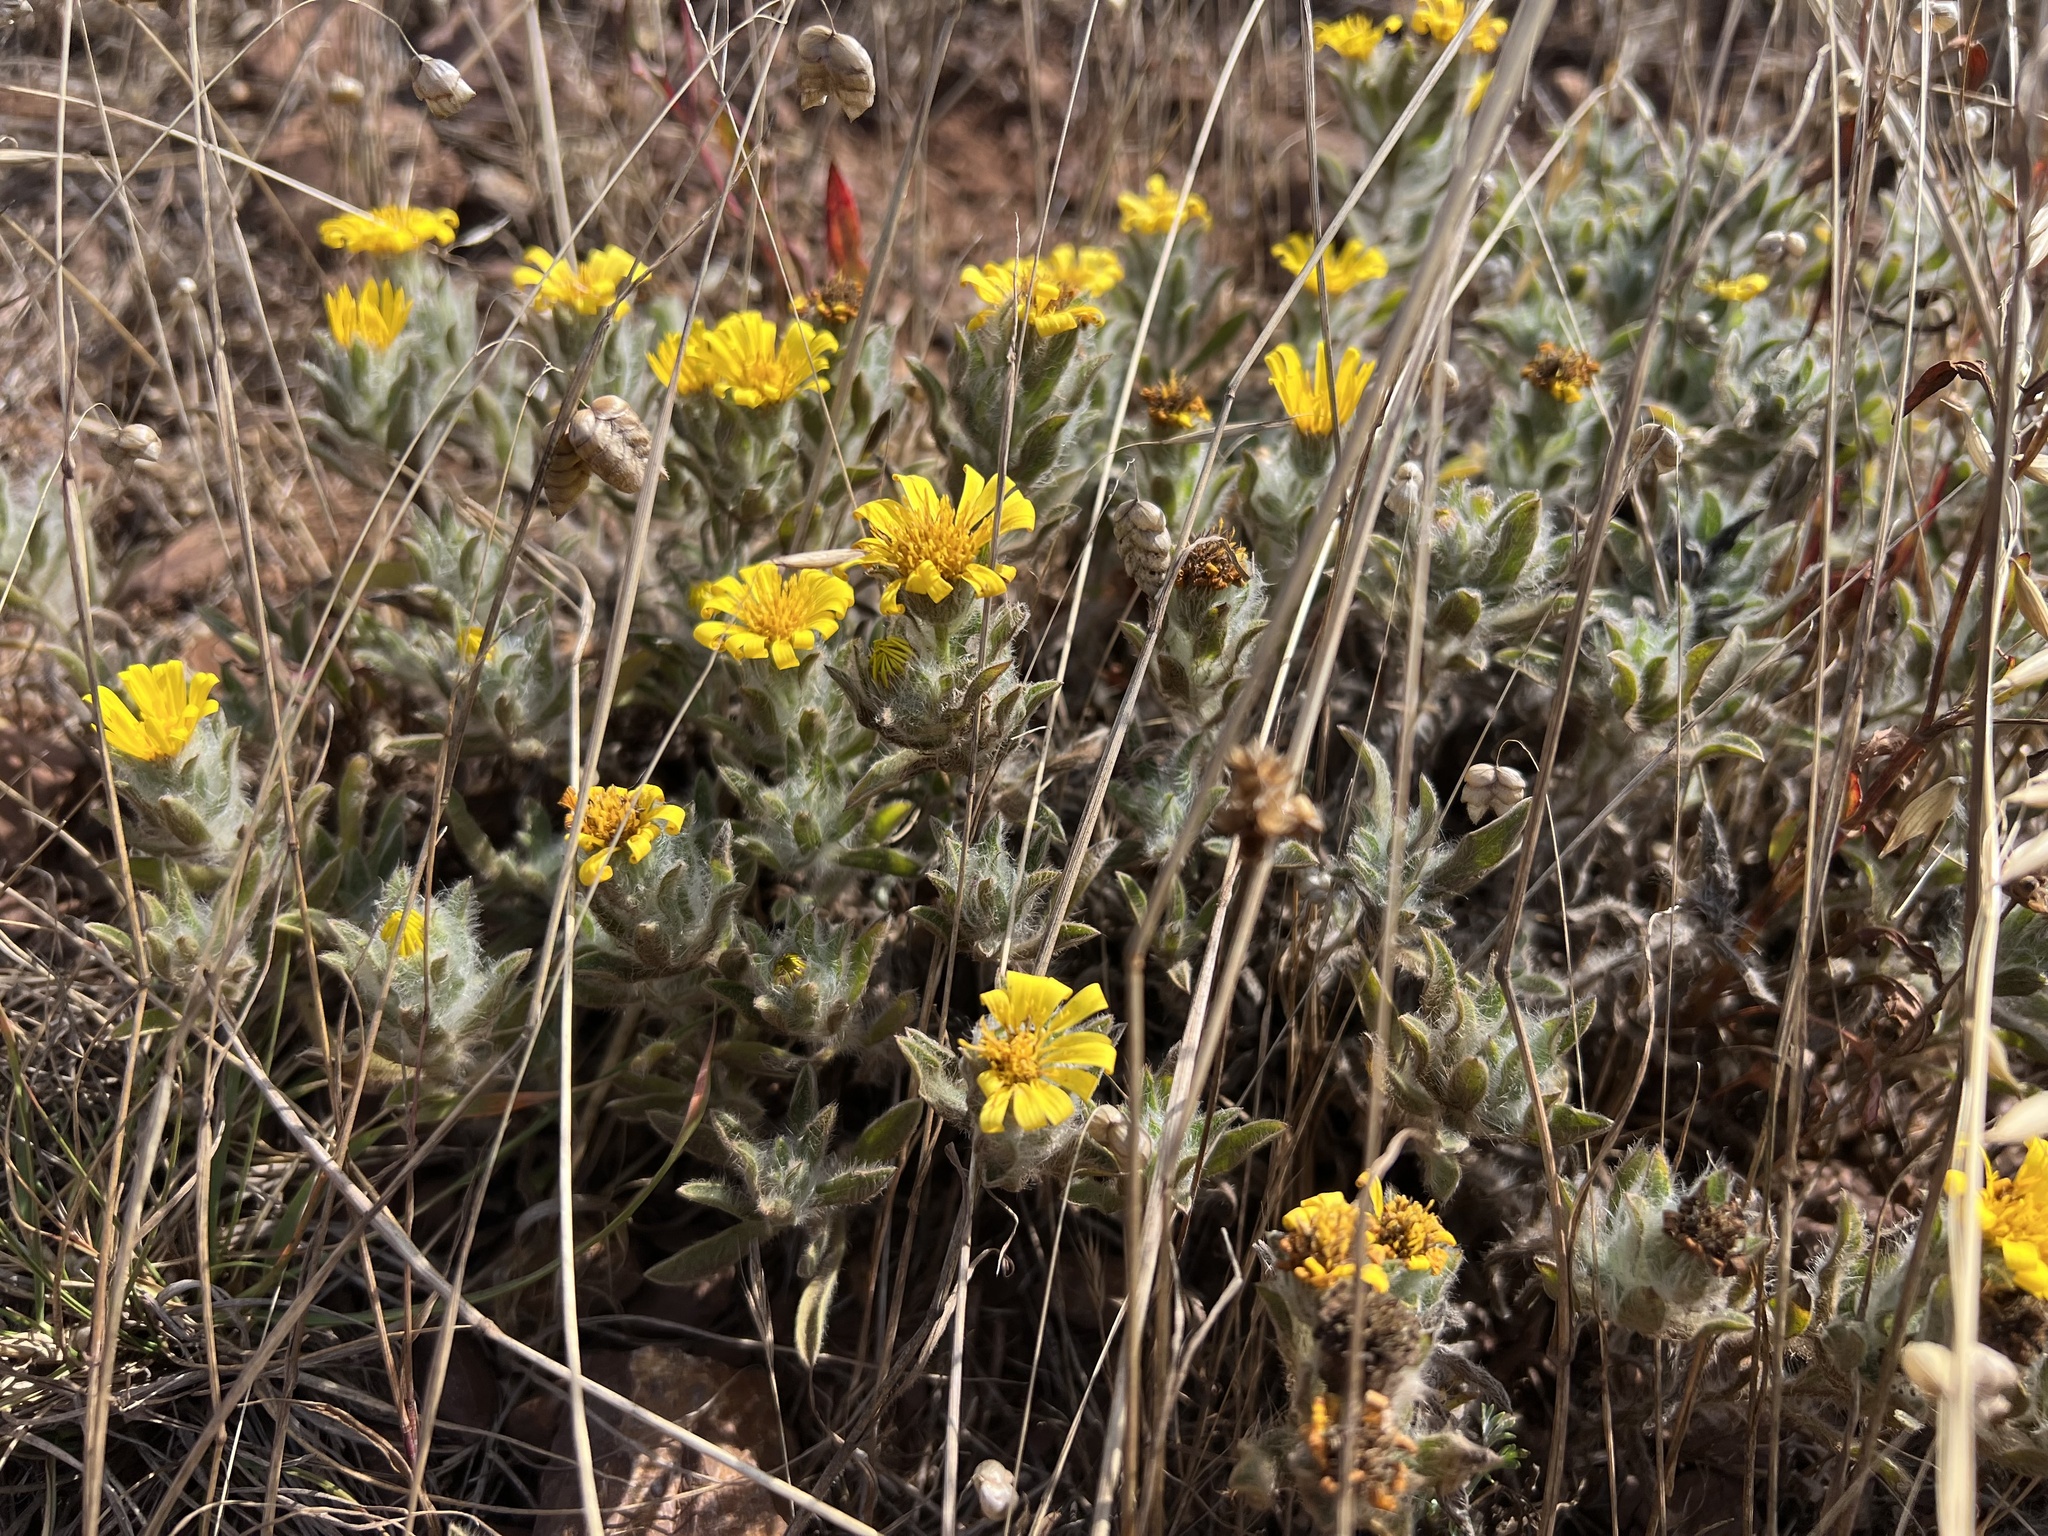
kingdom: Plantae
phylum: Tracheophyta
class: Magnoliopsida
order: Asterales
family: Asteraceae
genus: Heterotheca
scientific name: Heterotheca sessiliflora
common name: Sessile-flower golden-aster
